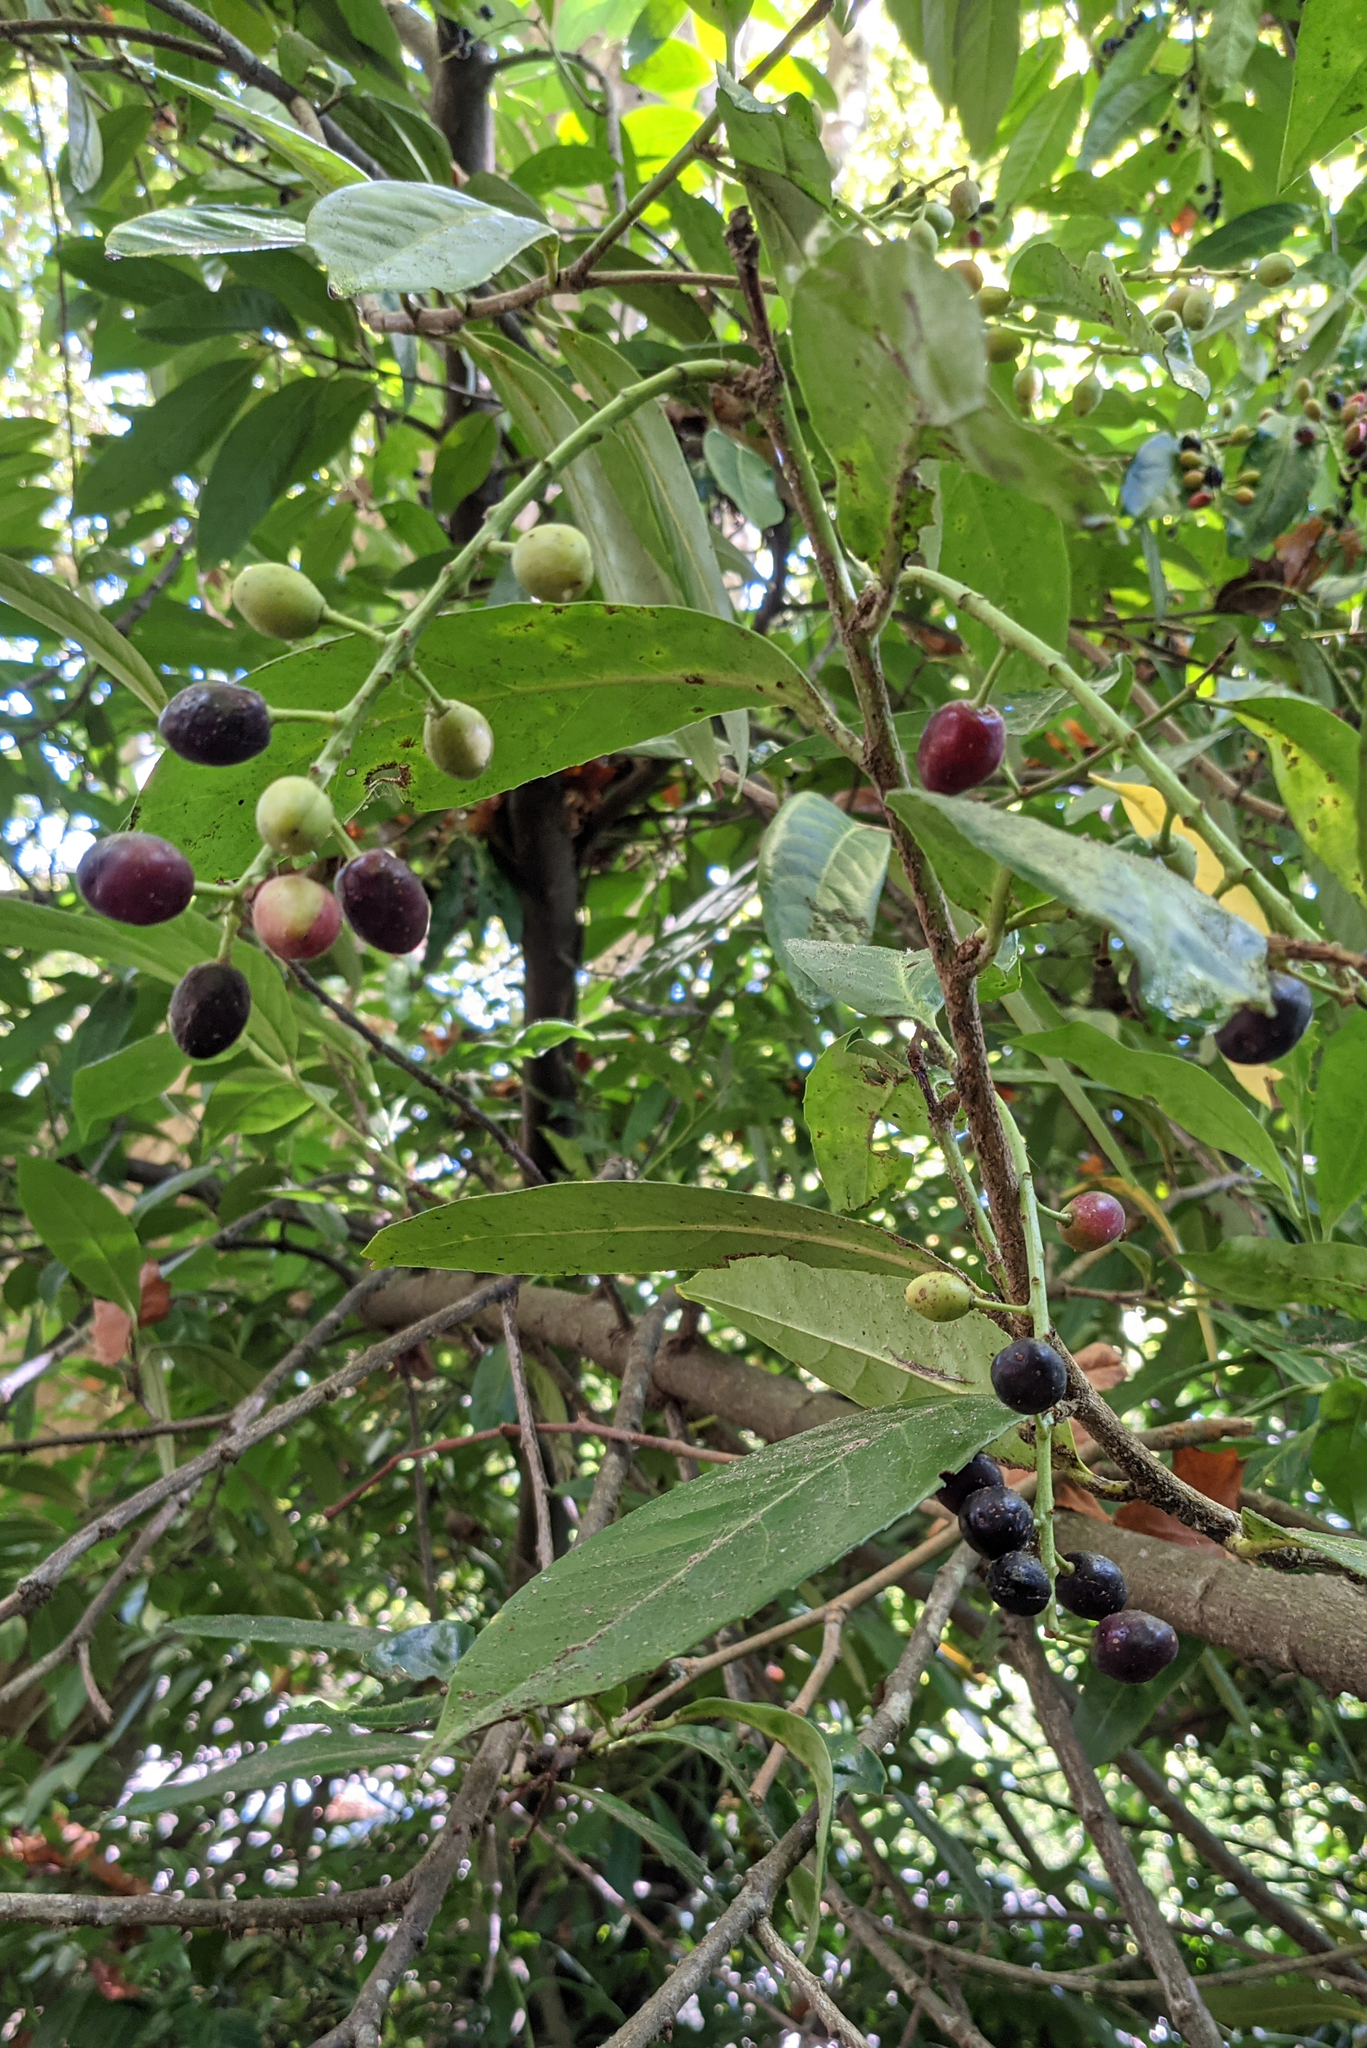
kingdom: Plantae
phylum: Tracheophyta
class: Magnoliopsida
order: Rosales
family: Rosaceae
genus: Prunus
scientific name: Prunus laurocerasus
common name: Cherry laurel
